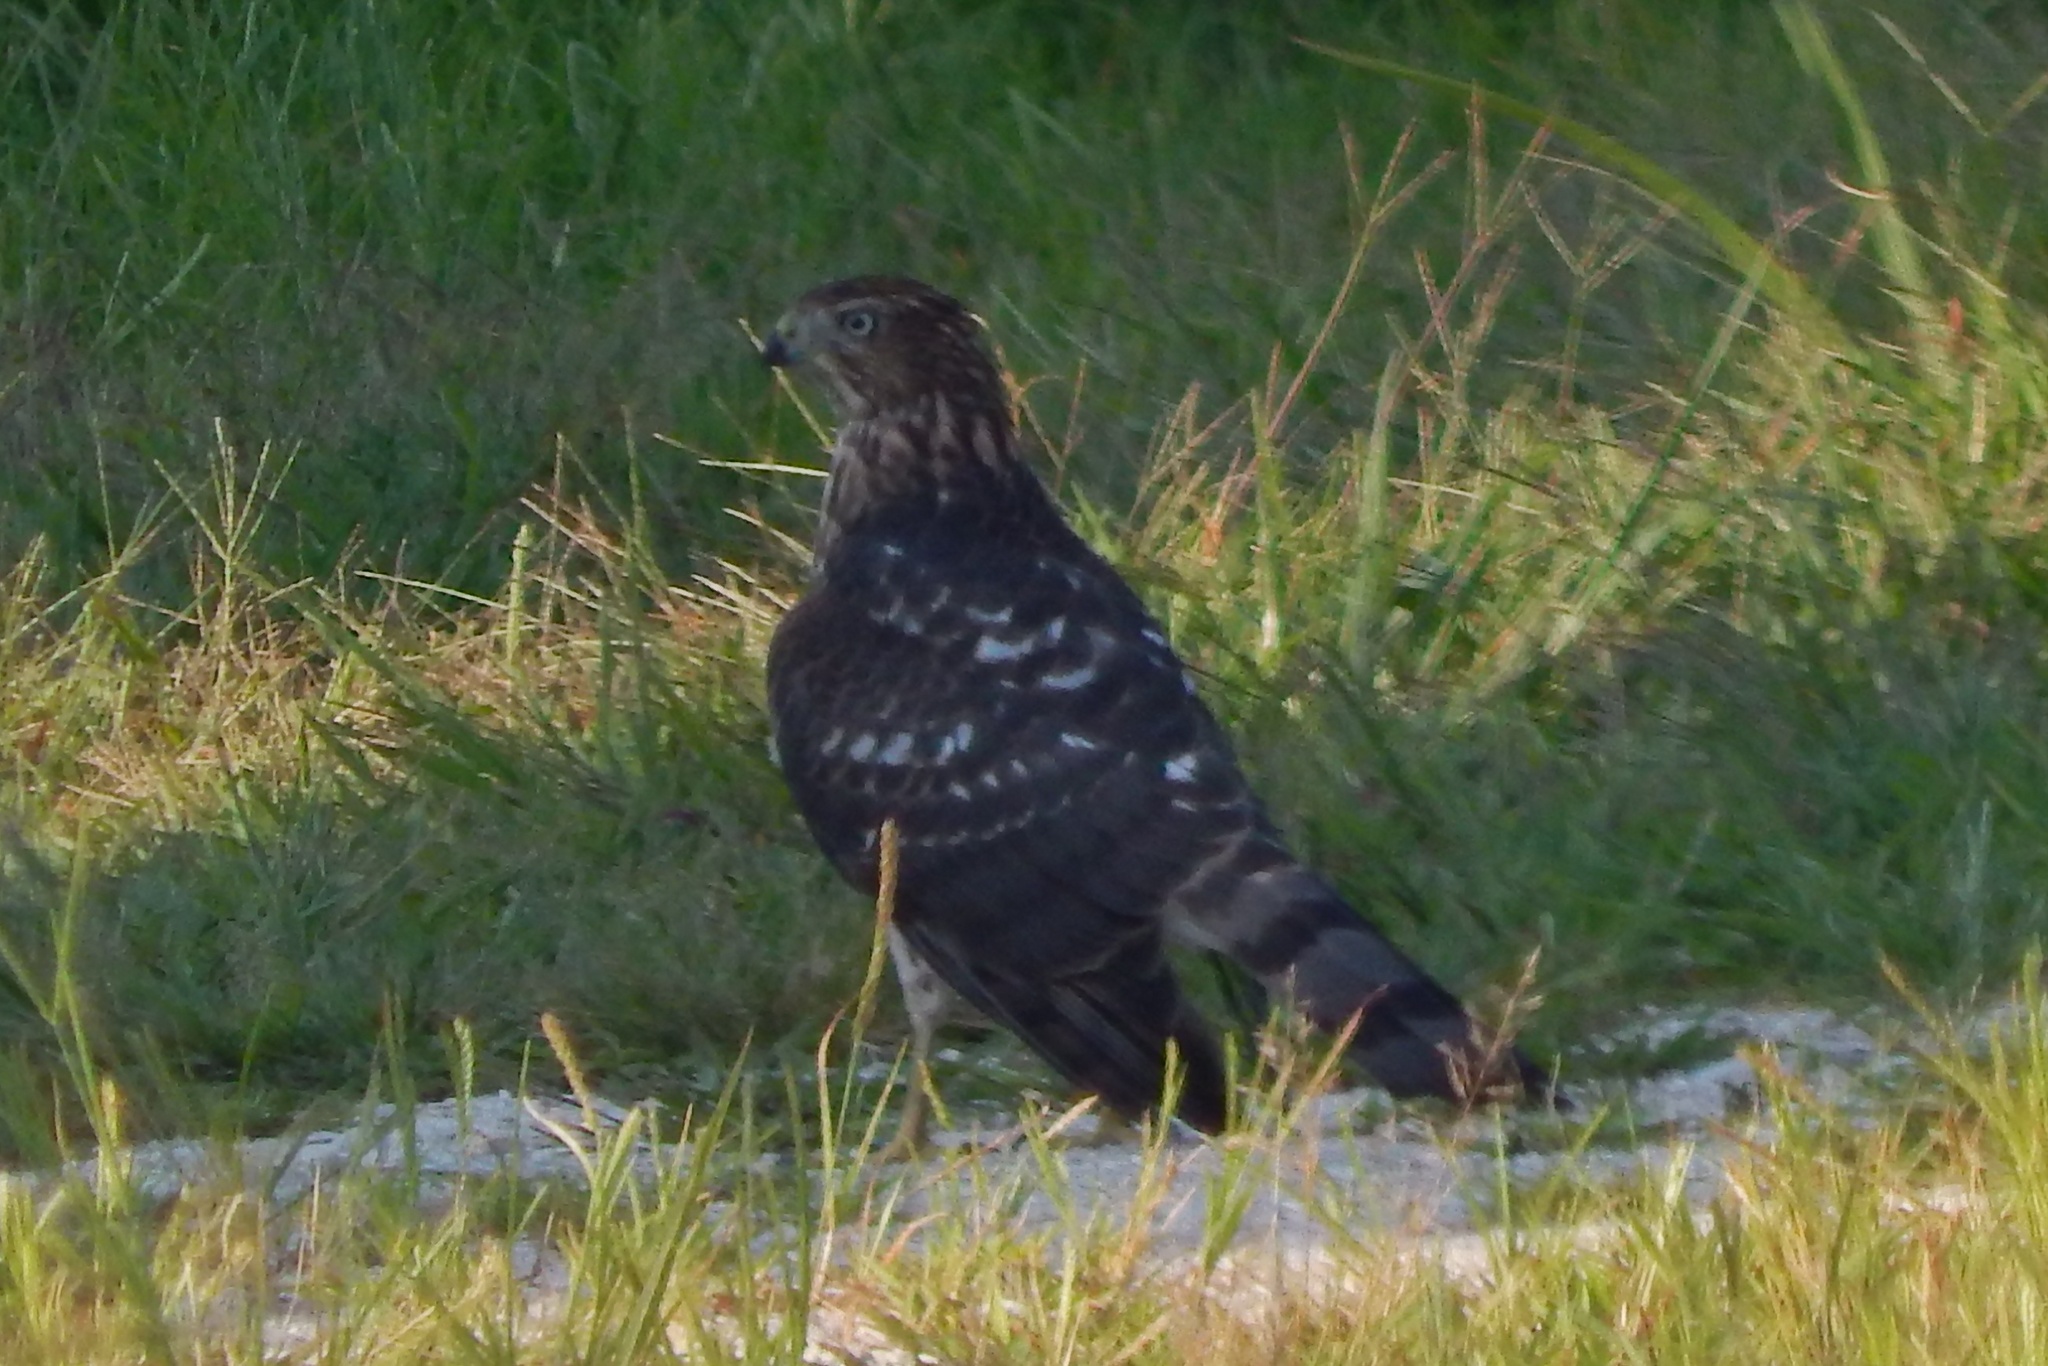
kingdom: Animalia
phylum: Chordata
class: Aves
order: Accipitriformes
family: Accipitridae
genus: Accipiter
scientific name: Accipiter cooperii
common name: Cooper's hawk
